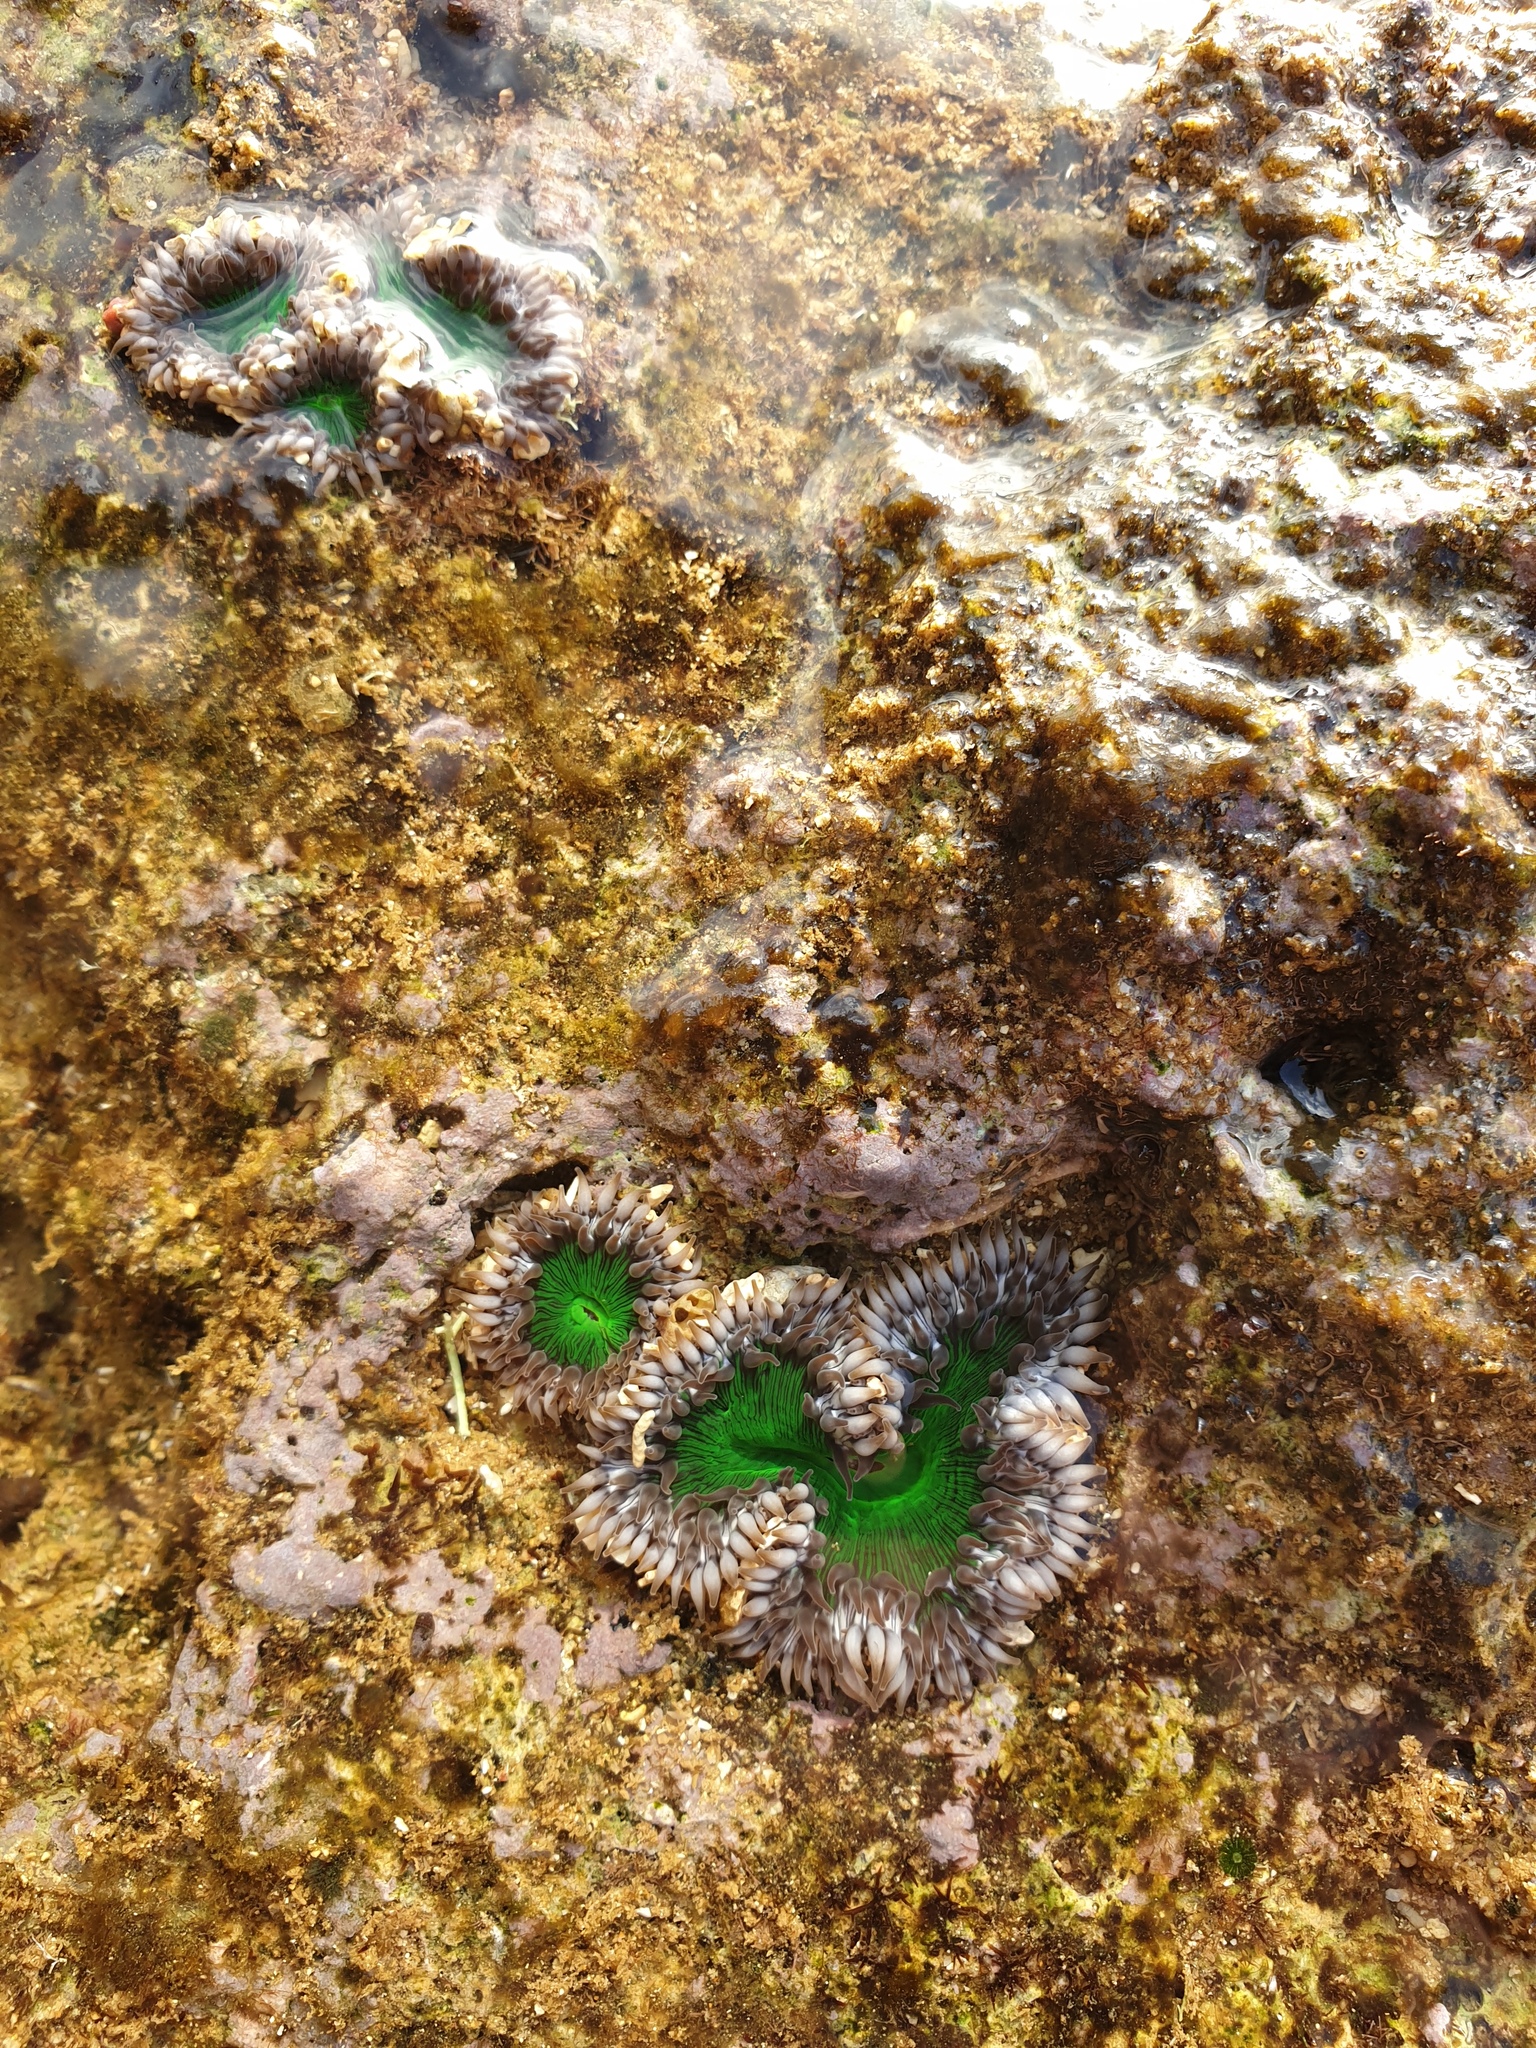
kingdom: Animalia
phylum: Cnidaria
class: Anthozoa
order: Actiniaria
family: Actiniidae
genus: Gyractis
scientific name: Gyractis sesere
